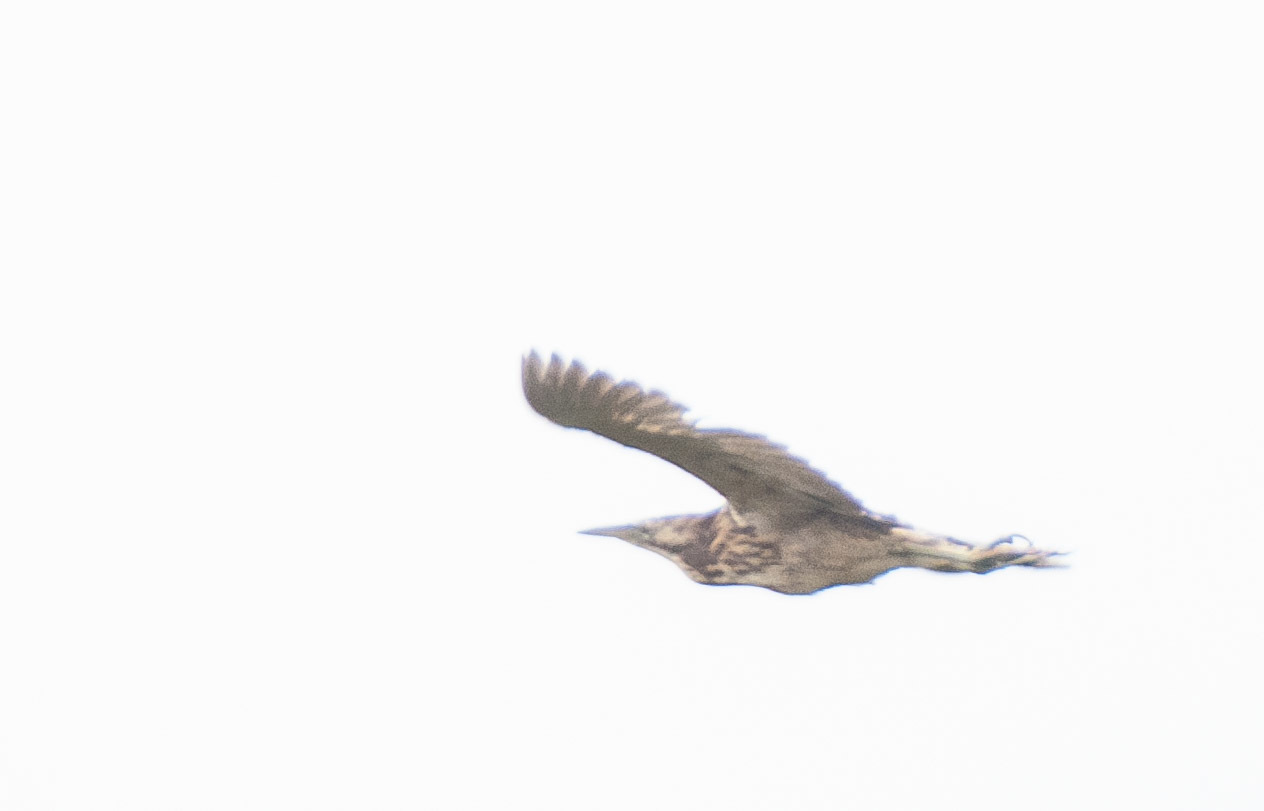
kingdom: Animalia
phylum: Chordata
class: Aves
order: Pelecaniformes
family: Ardeidae
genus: Botaurus
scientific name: Botaurus poiciloptilus
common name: Australasian bittern
